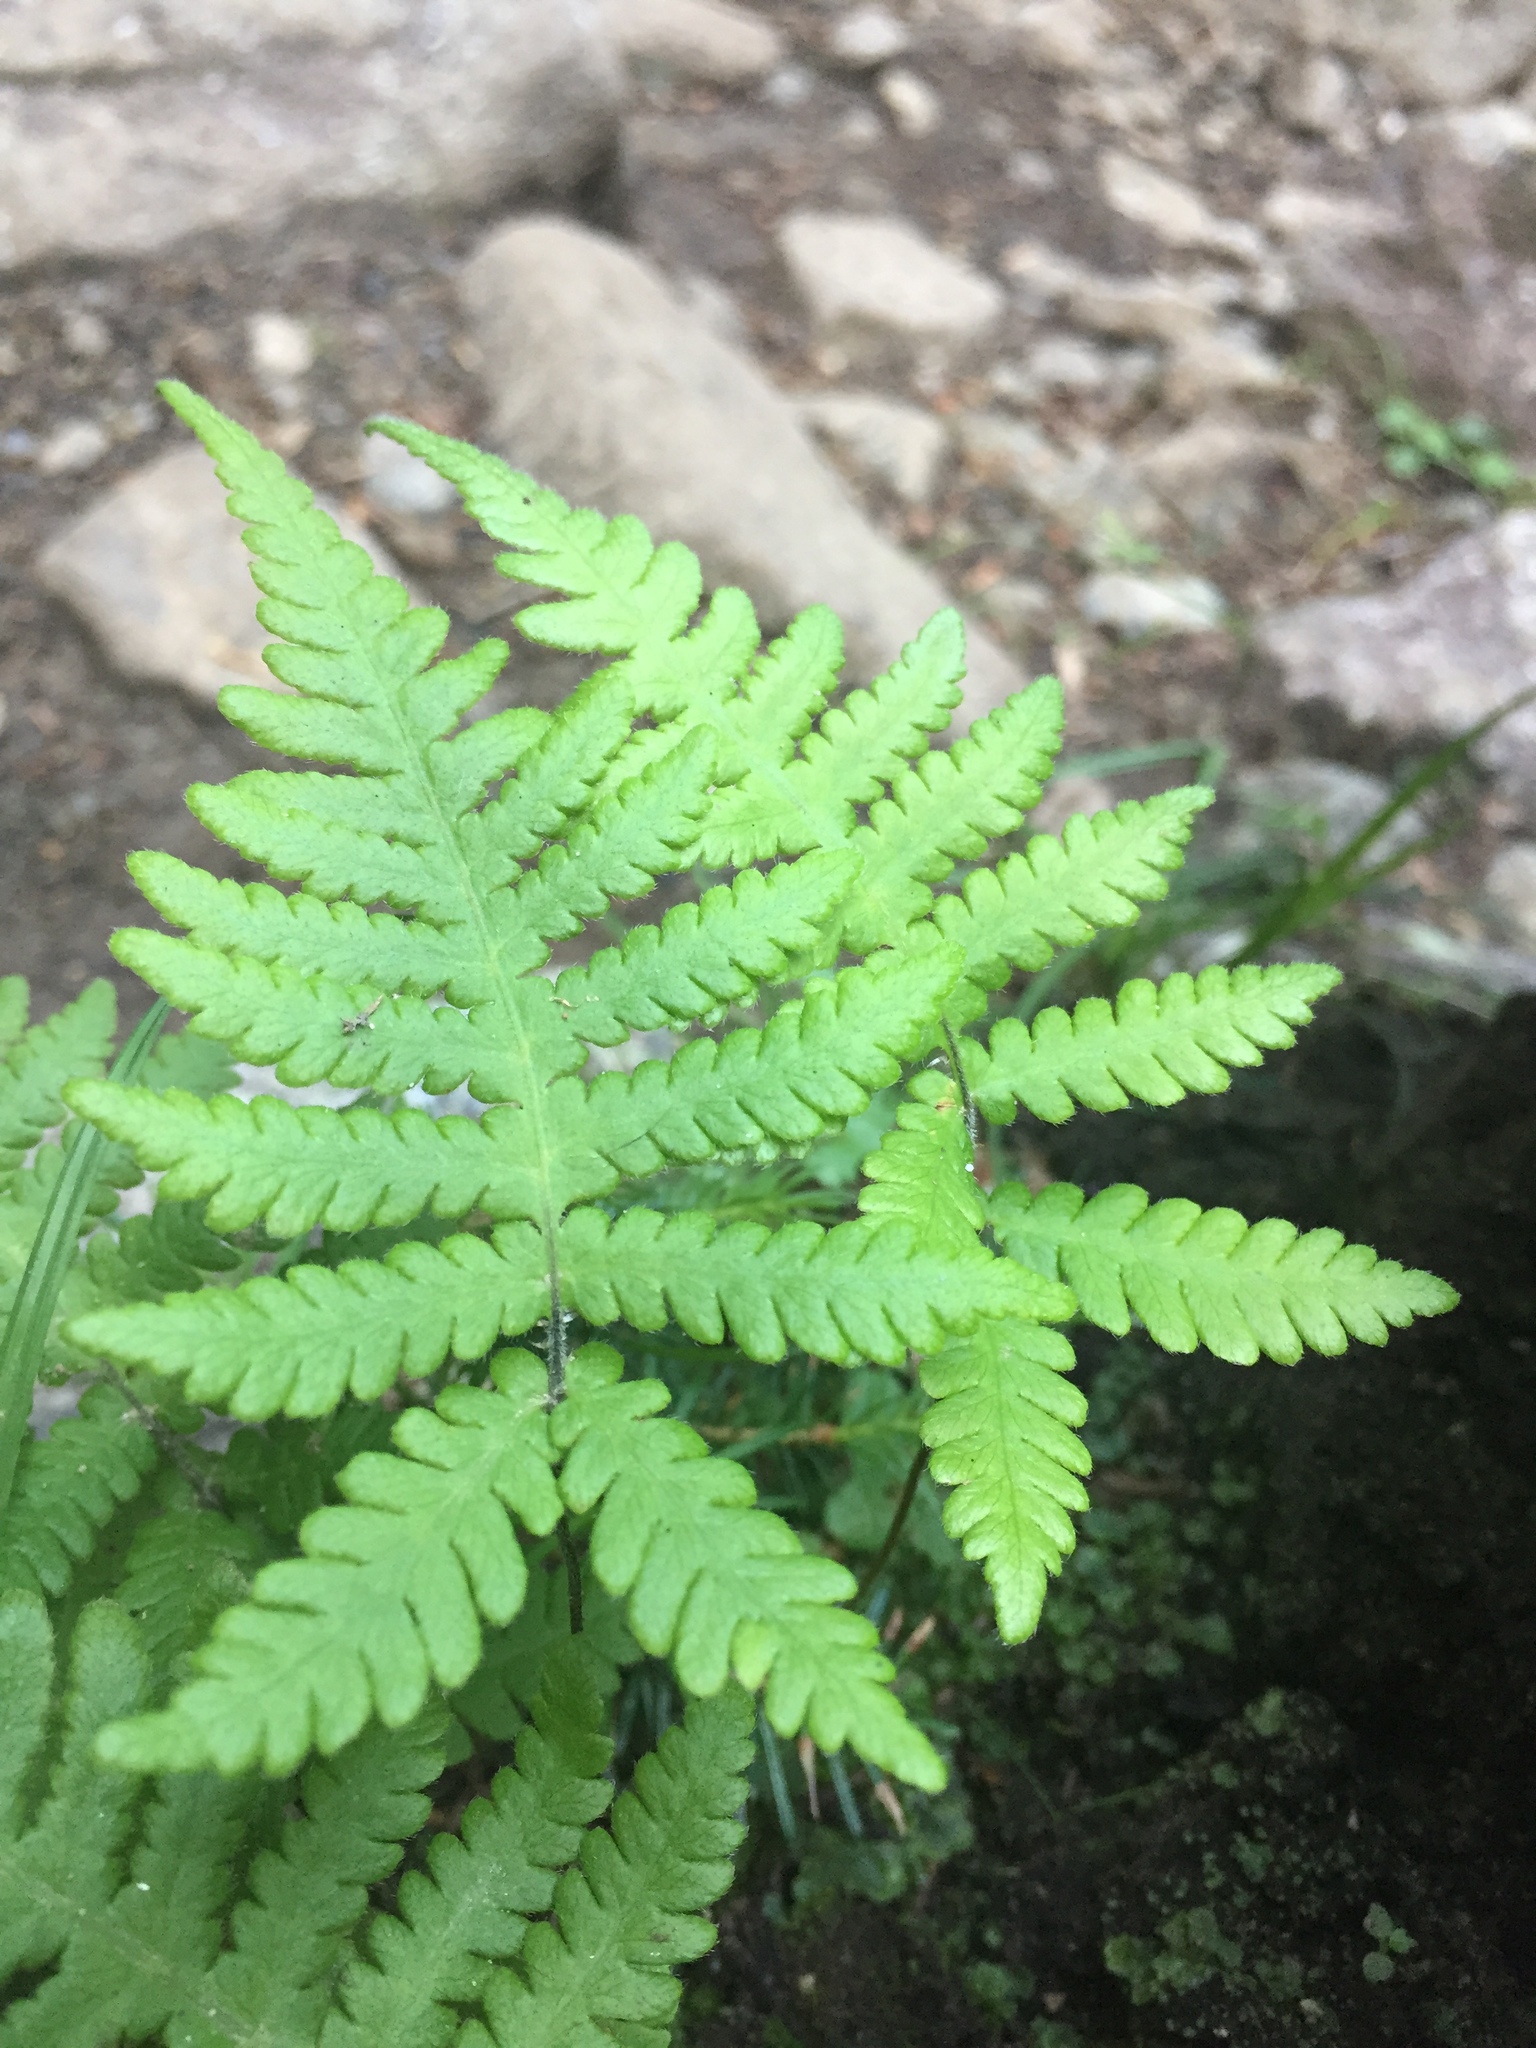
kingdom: Plantae
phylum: Tracheophyta
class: Polypodiopsida
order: Polypodiales
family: Thelypteridaceae
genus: Phegopteris
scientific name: Phegopteris connectilis
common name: Beech fern
